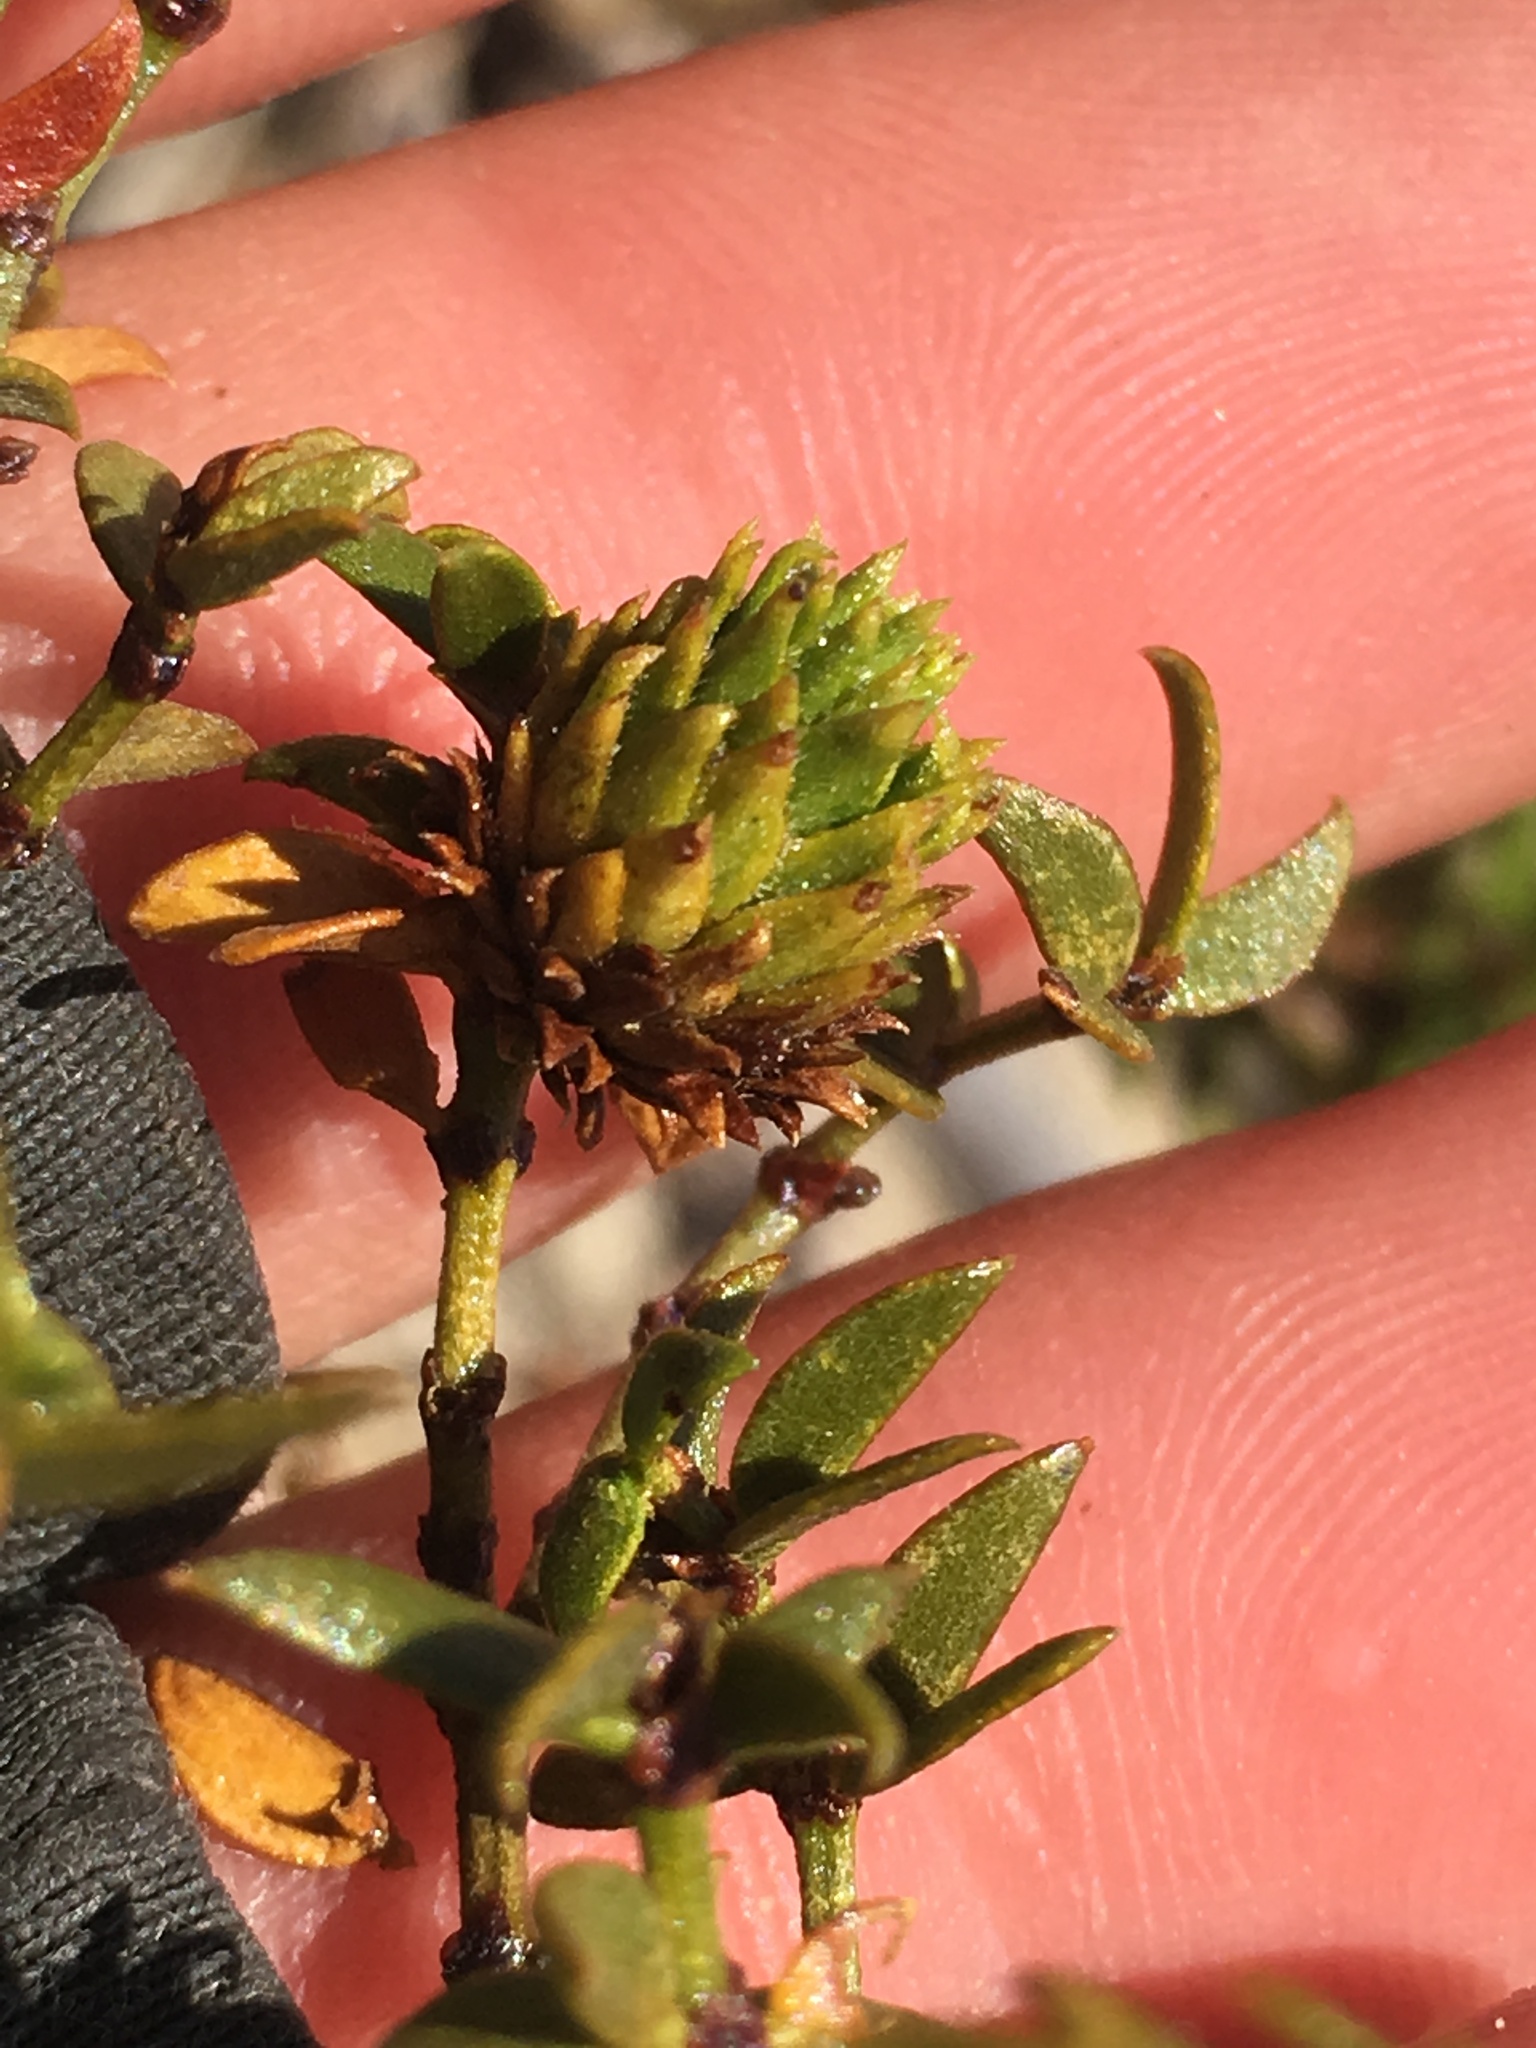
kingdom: Animalia
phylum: Arthropoda
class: Insecta
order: Diptera
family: Cecidomyiidae
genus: Asphondylia
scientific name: Asphondylia foliosa
